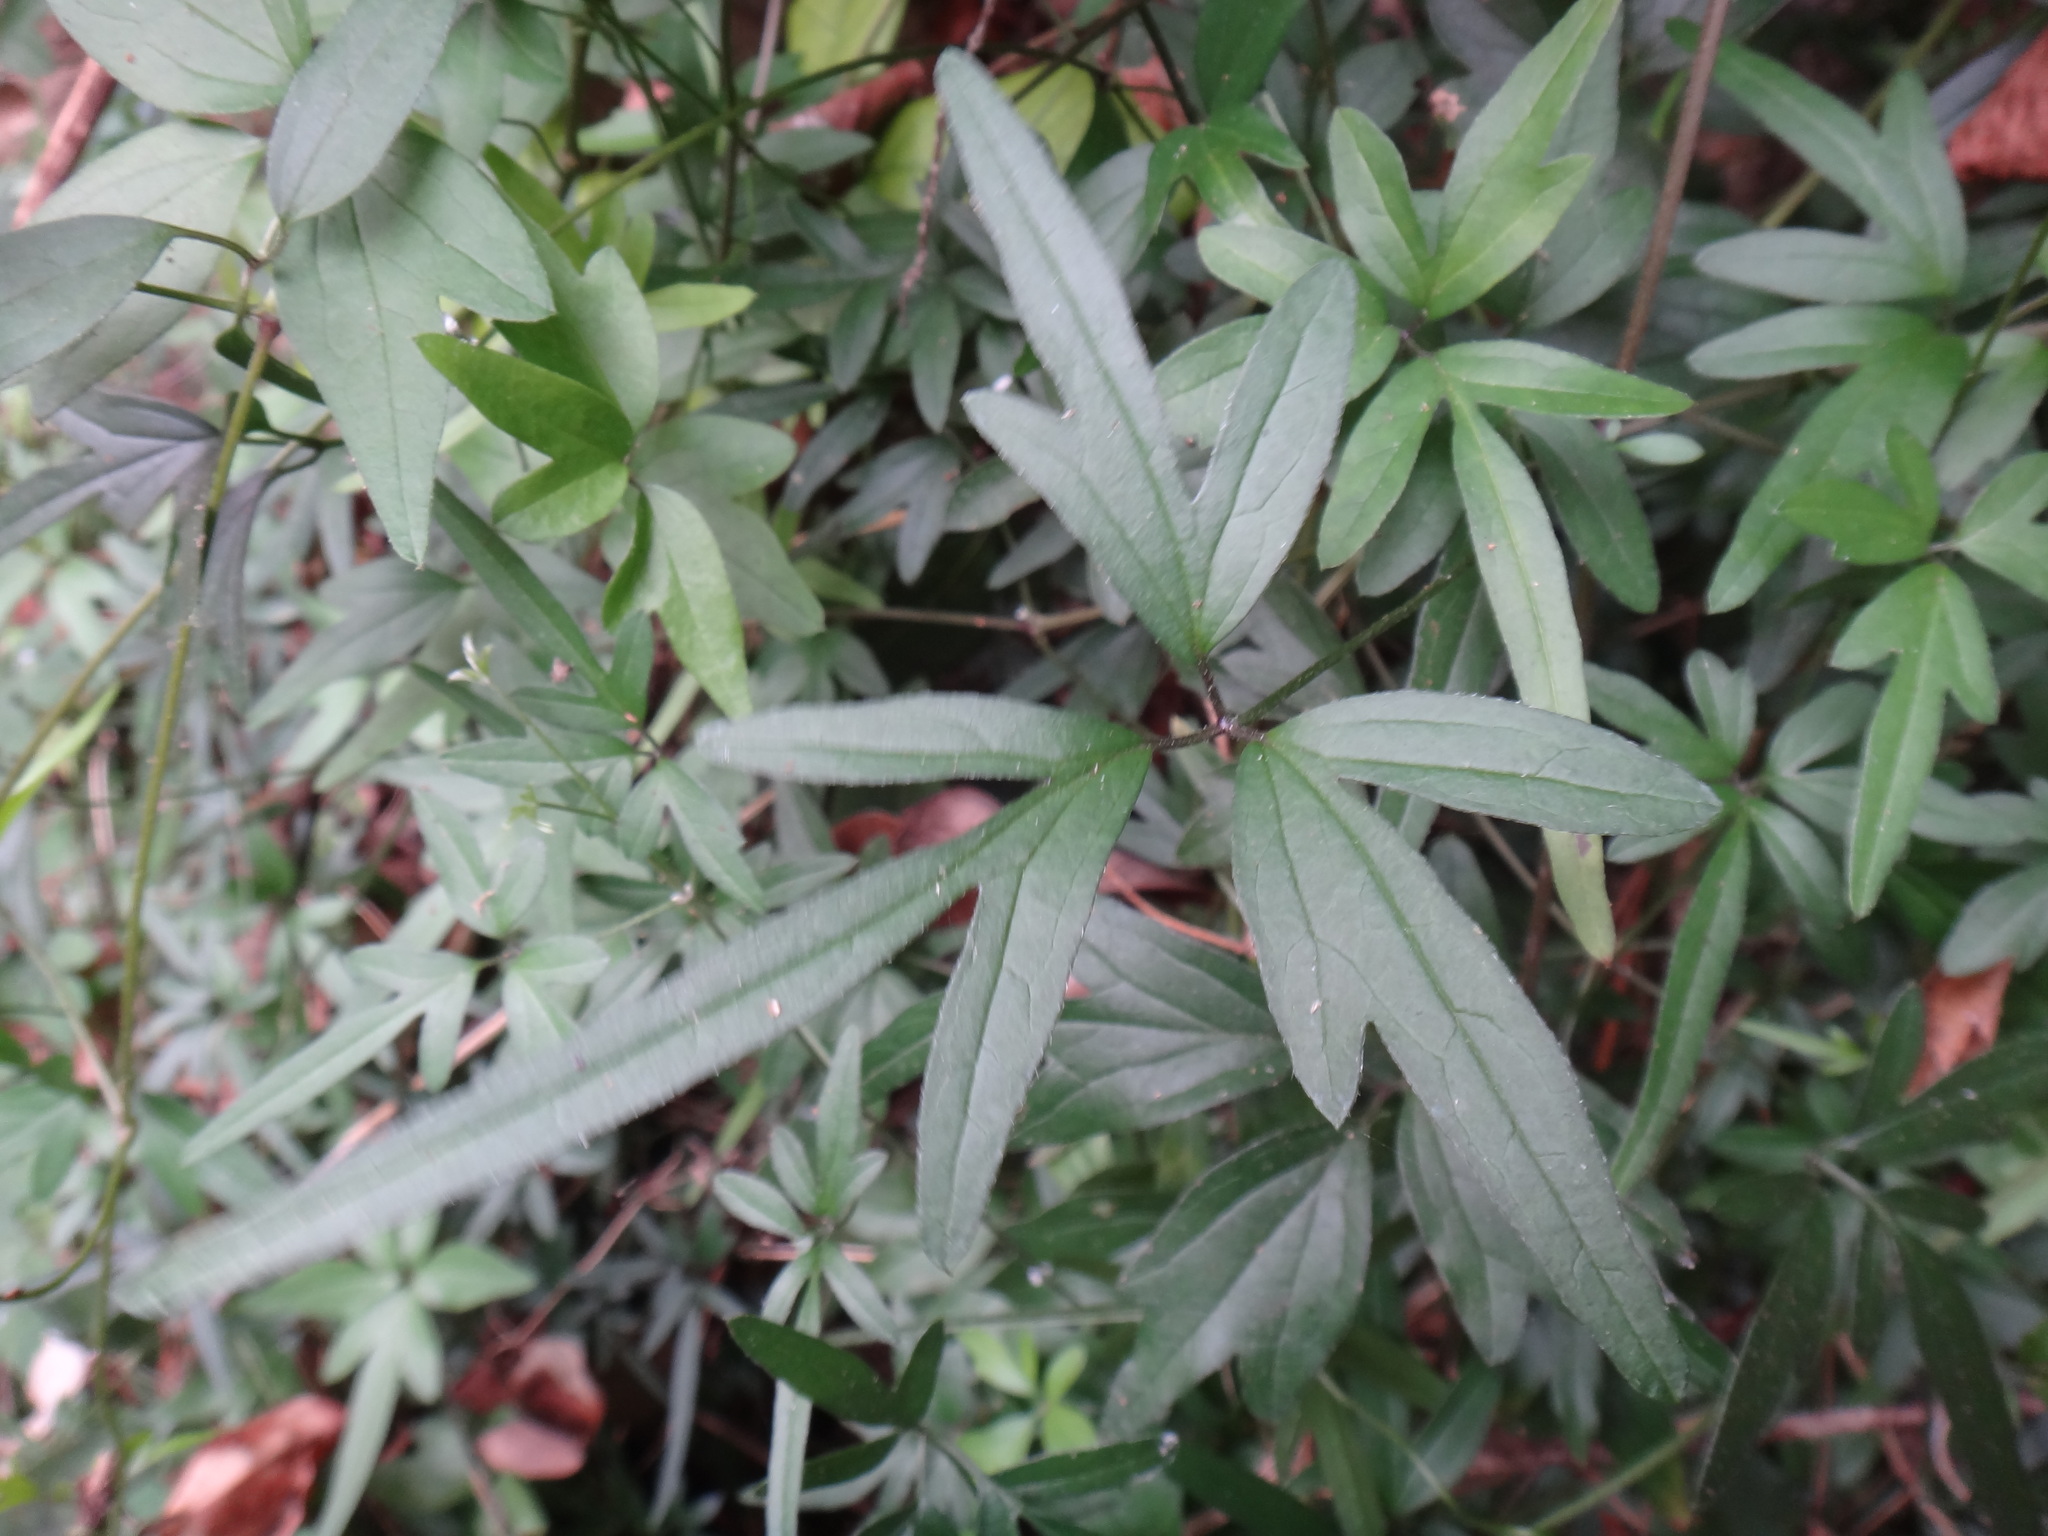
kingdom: Plantae
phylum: Tracheophyta
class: Magnoliopsida
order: Ranunculales
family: Ranunculaceae
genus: Clematis
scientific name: Clematis formosana
